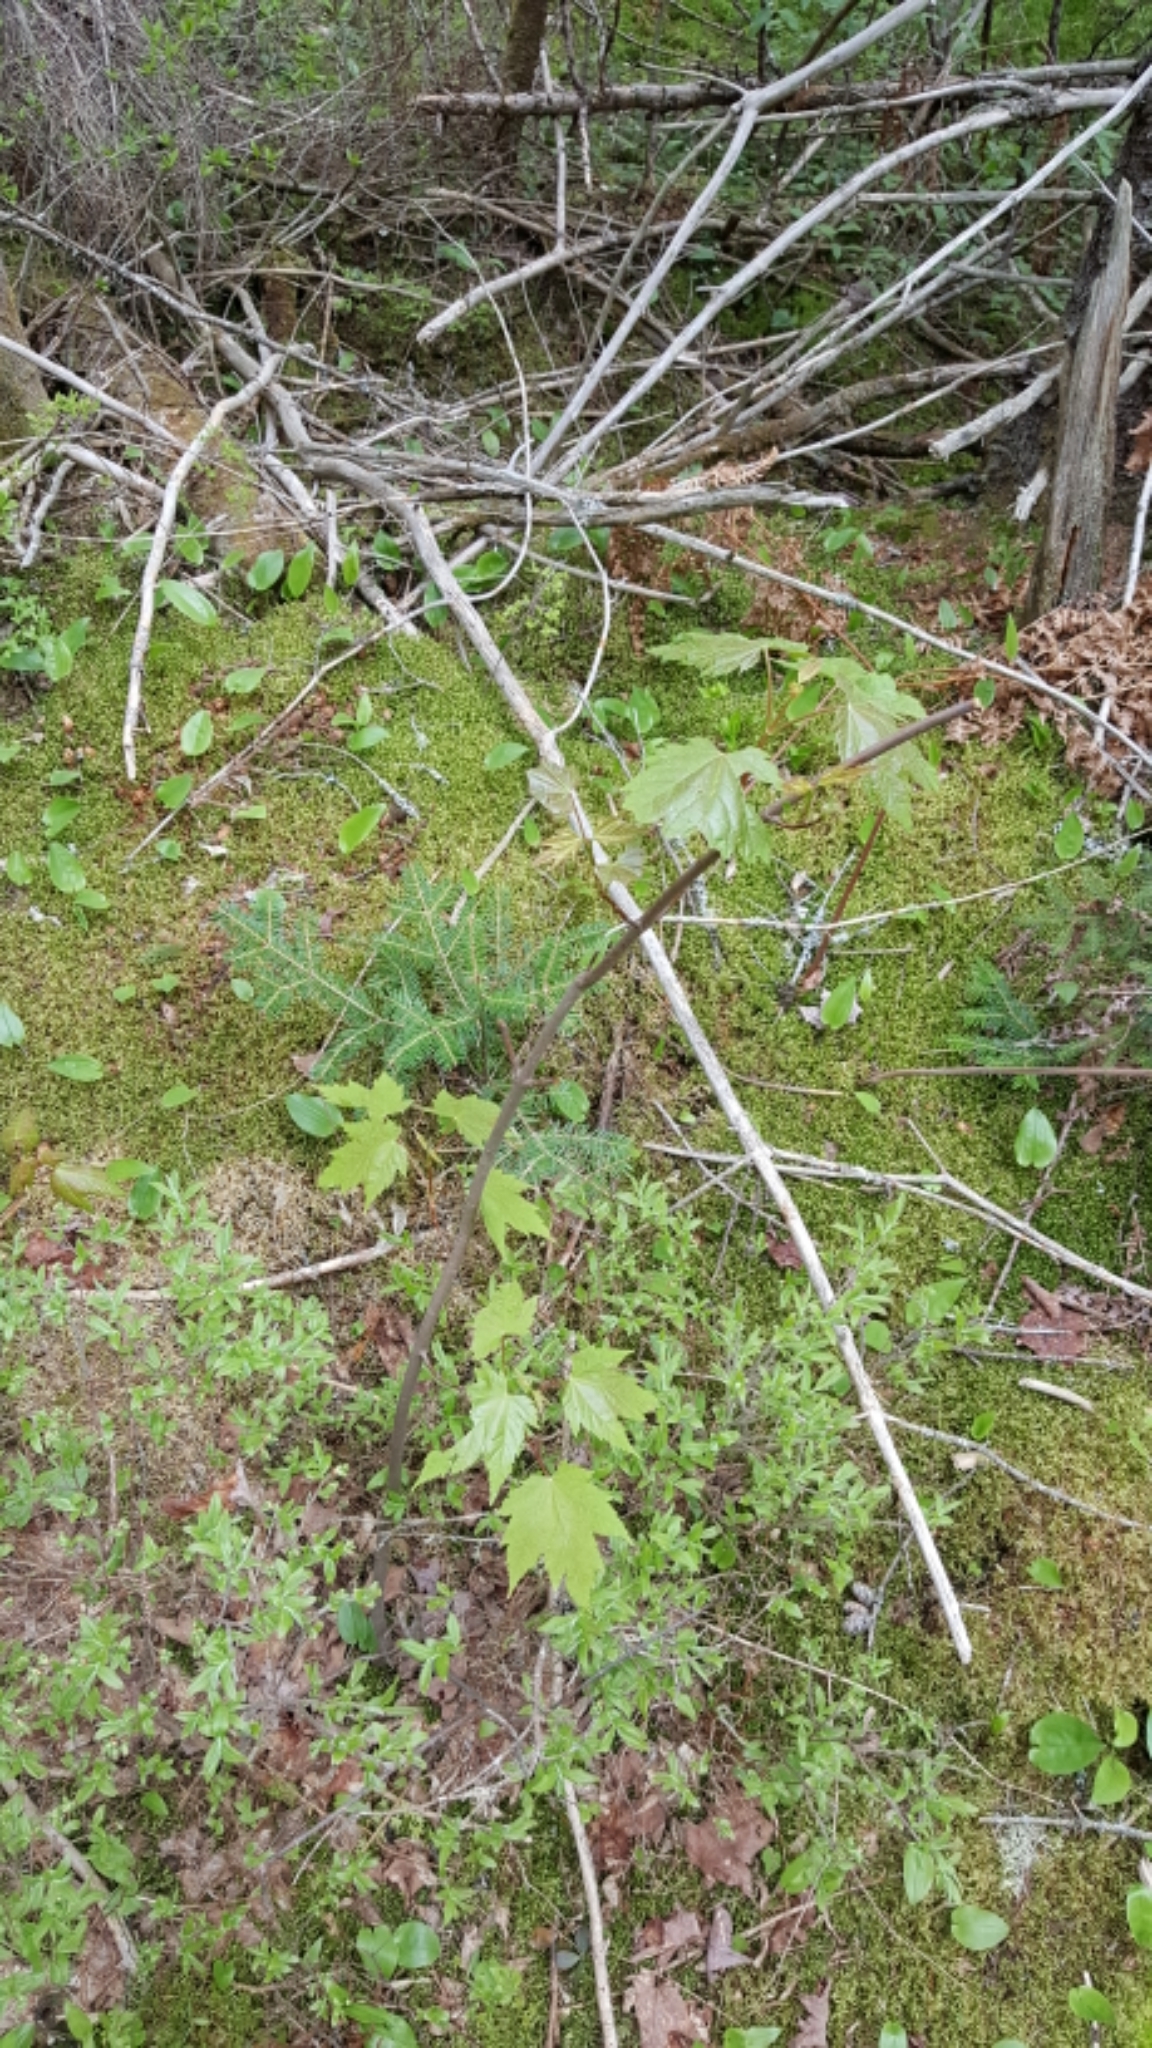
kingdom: Plantae
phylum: Tracheophyta
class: Magnoliopsida
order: Sapindales
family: Sapindaceae
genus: Acer
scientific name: Acer rubrum
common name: Red maple
